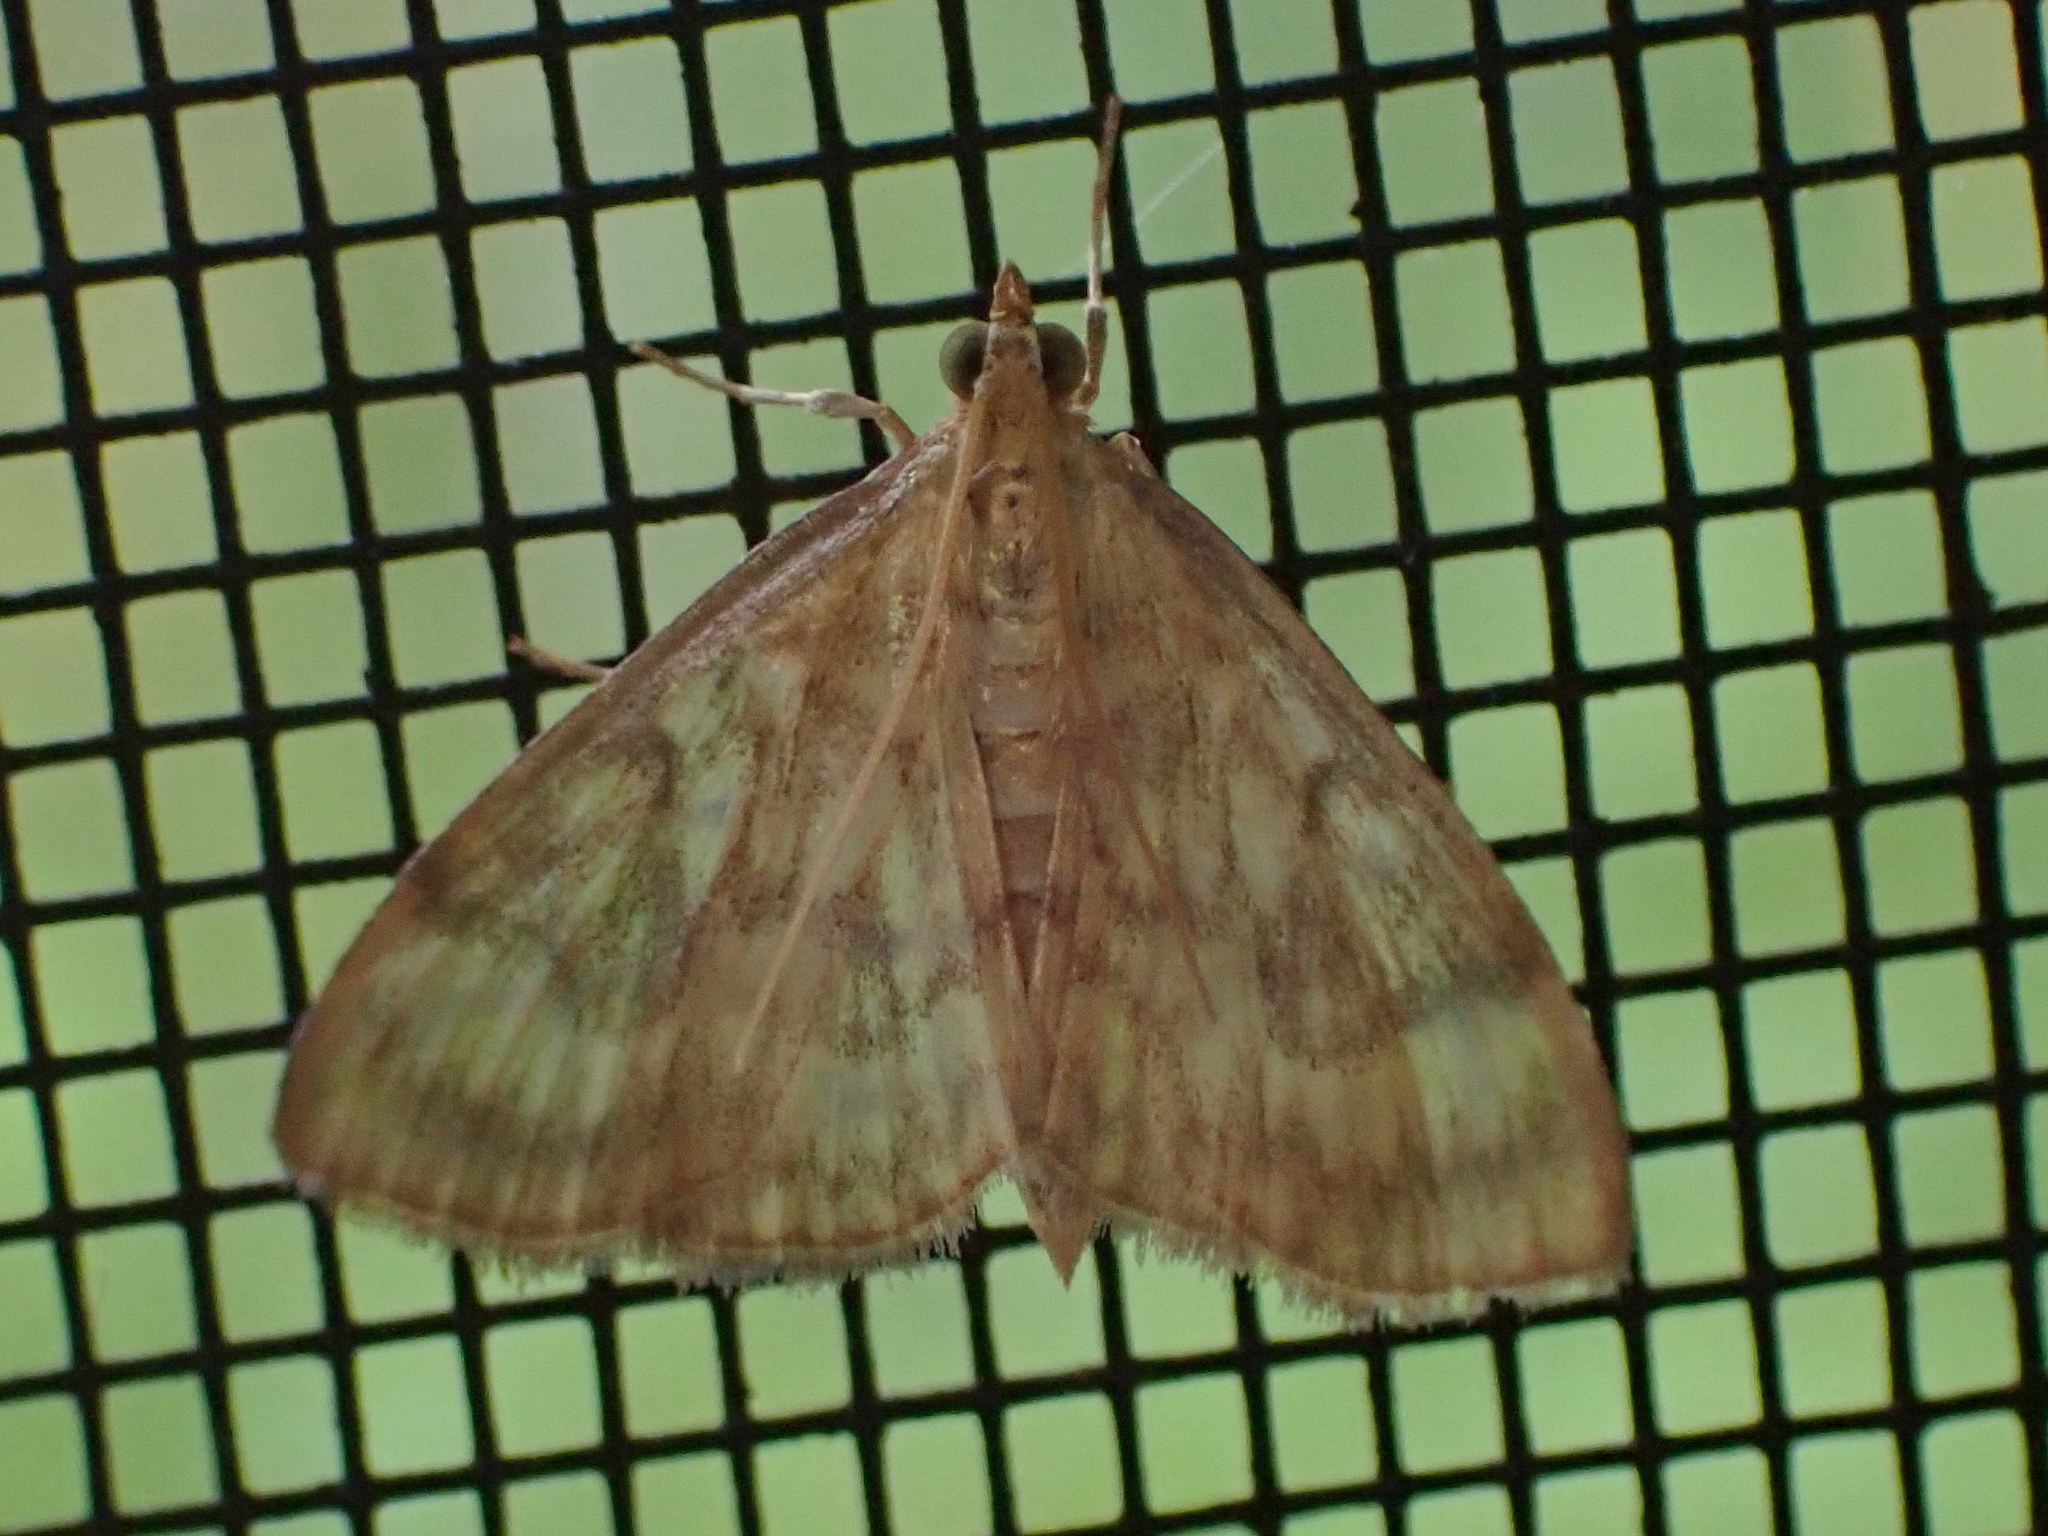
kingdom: Animalia
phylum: Arthropoda
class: Insecta
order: Lepidoptera
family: Crambidae
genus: Crocidophora
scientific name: Crocidophora serratissimalis
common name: Saw-toothed crocidophora moth
